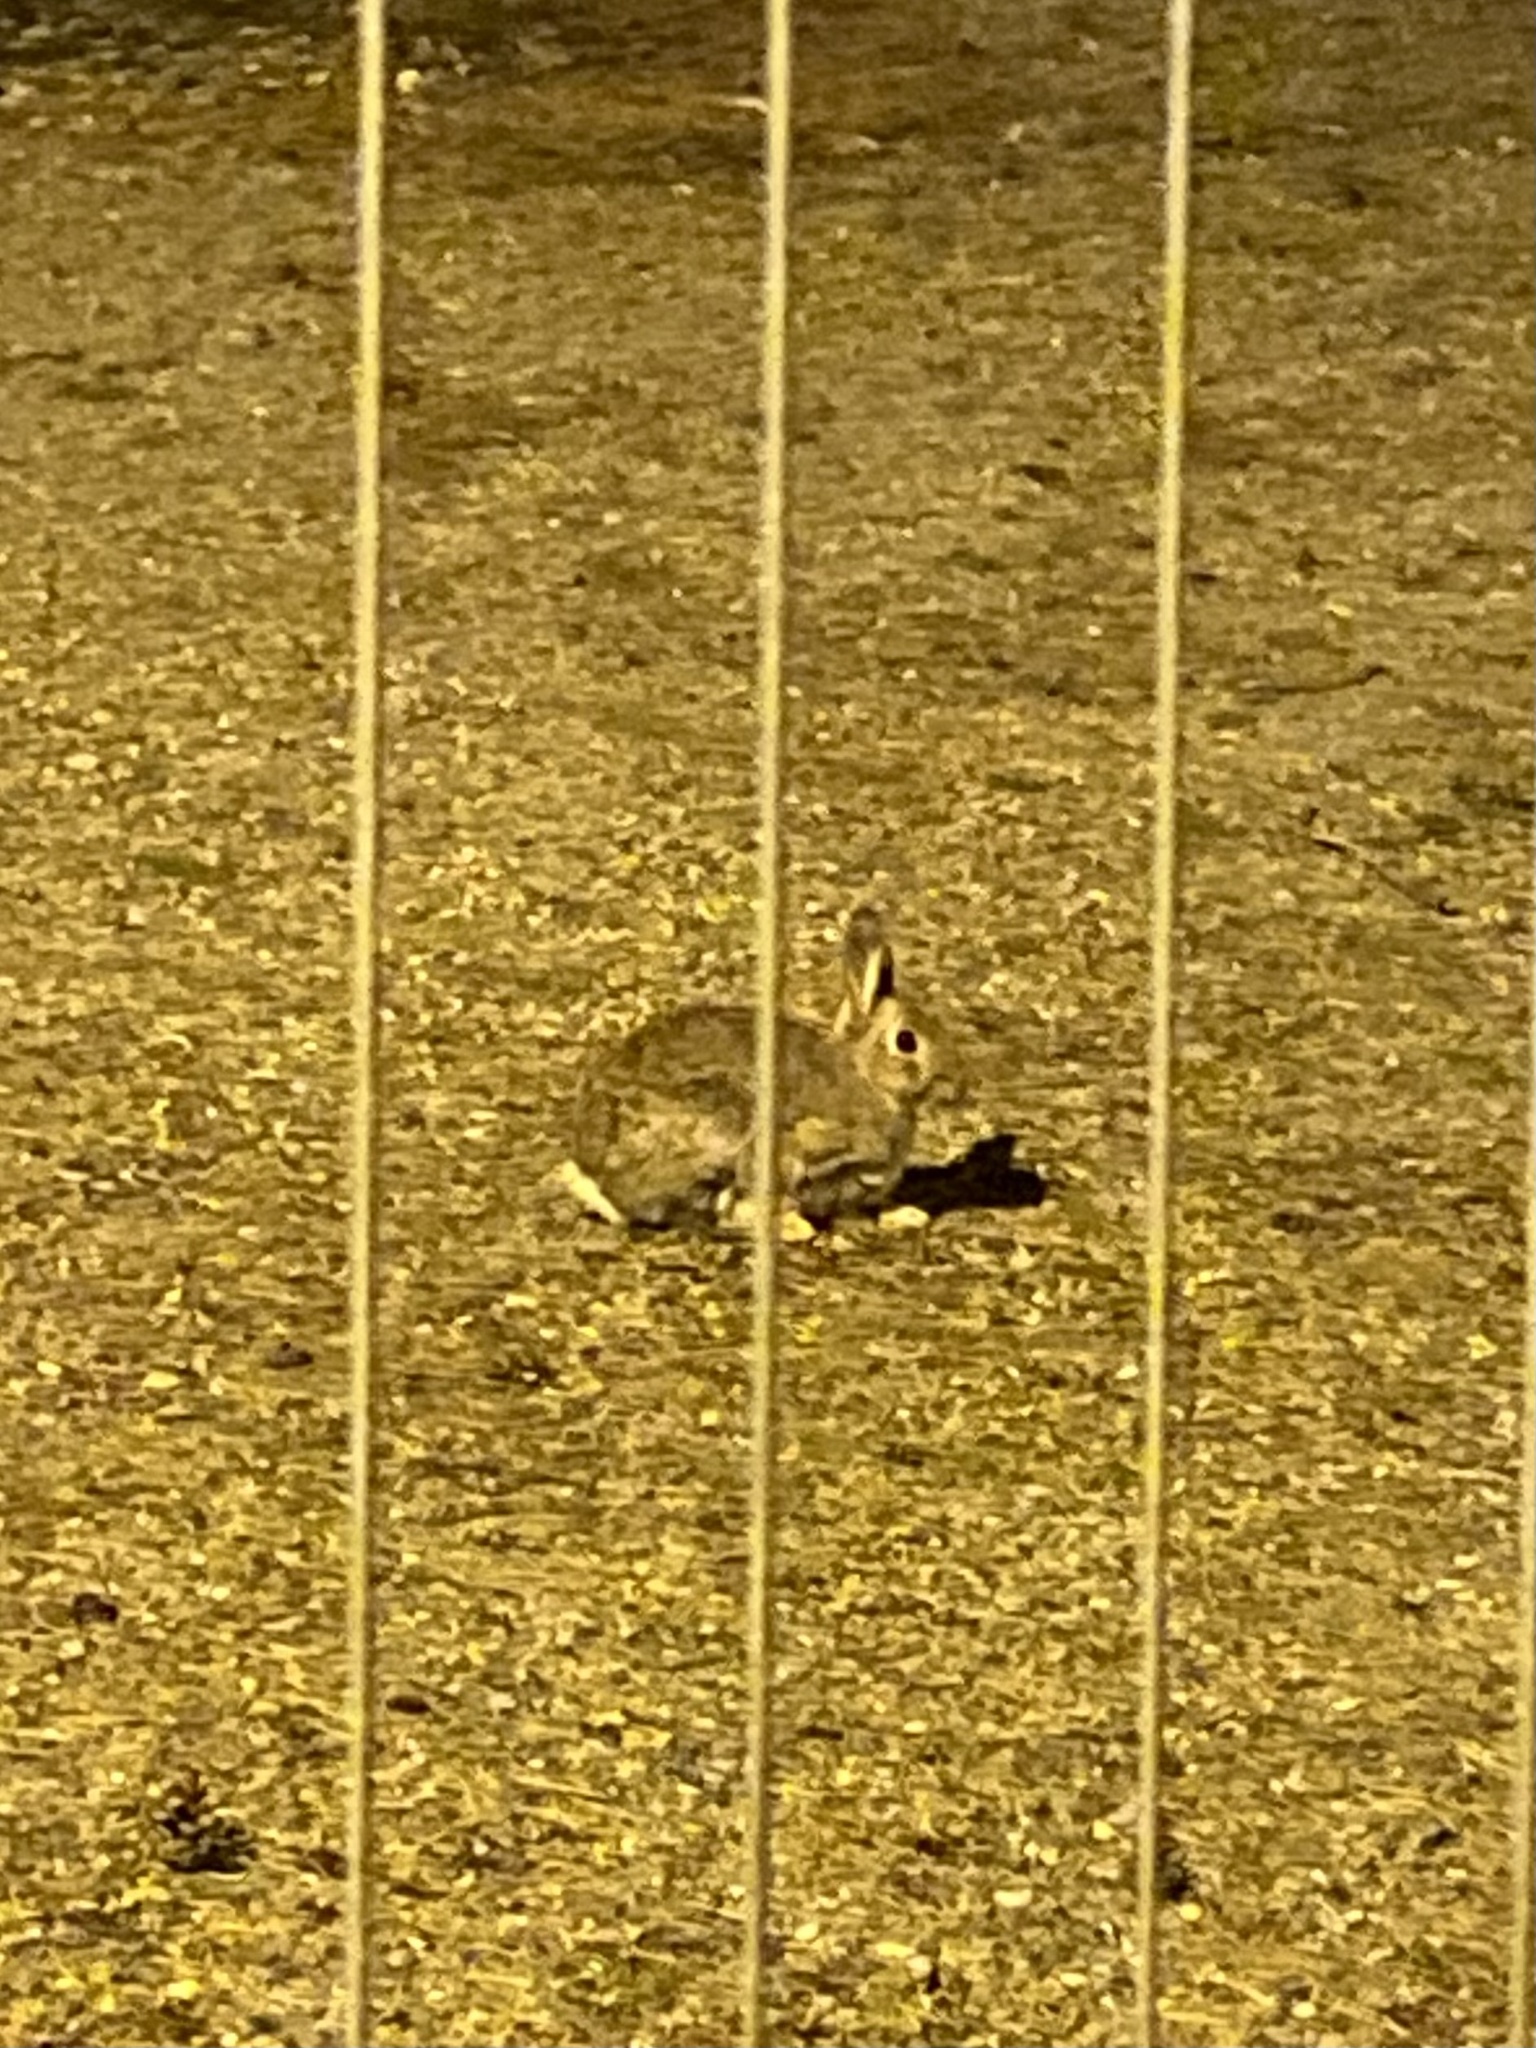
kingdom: Animalia
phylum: Chordata
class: Mammalia
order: Lagomorpha
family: Leporidae
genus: Oryctolagus
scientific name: Oryctolagus cuniculus
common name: European rabbit
